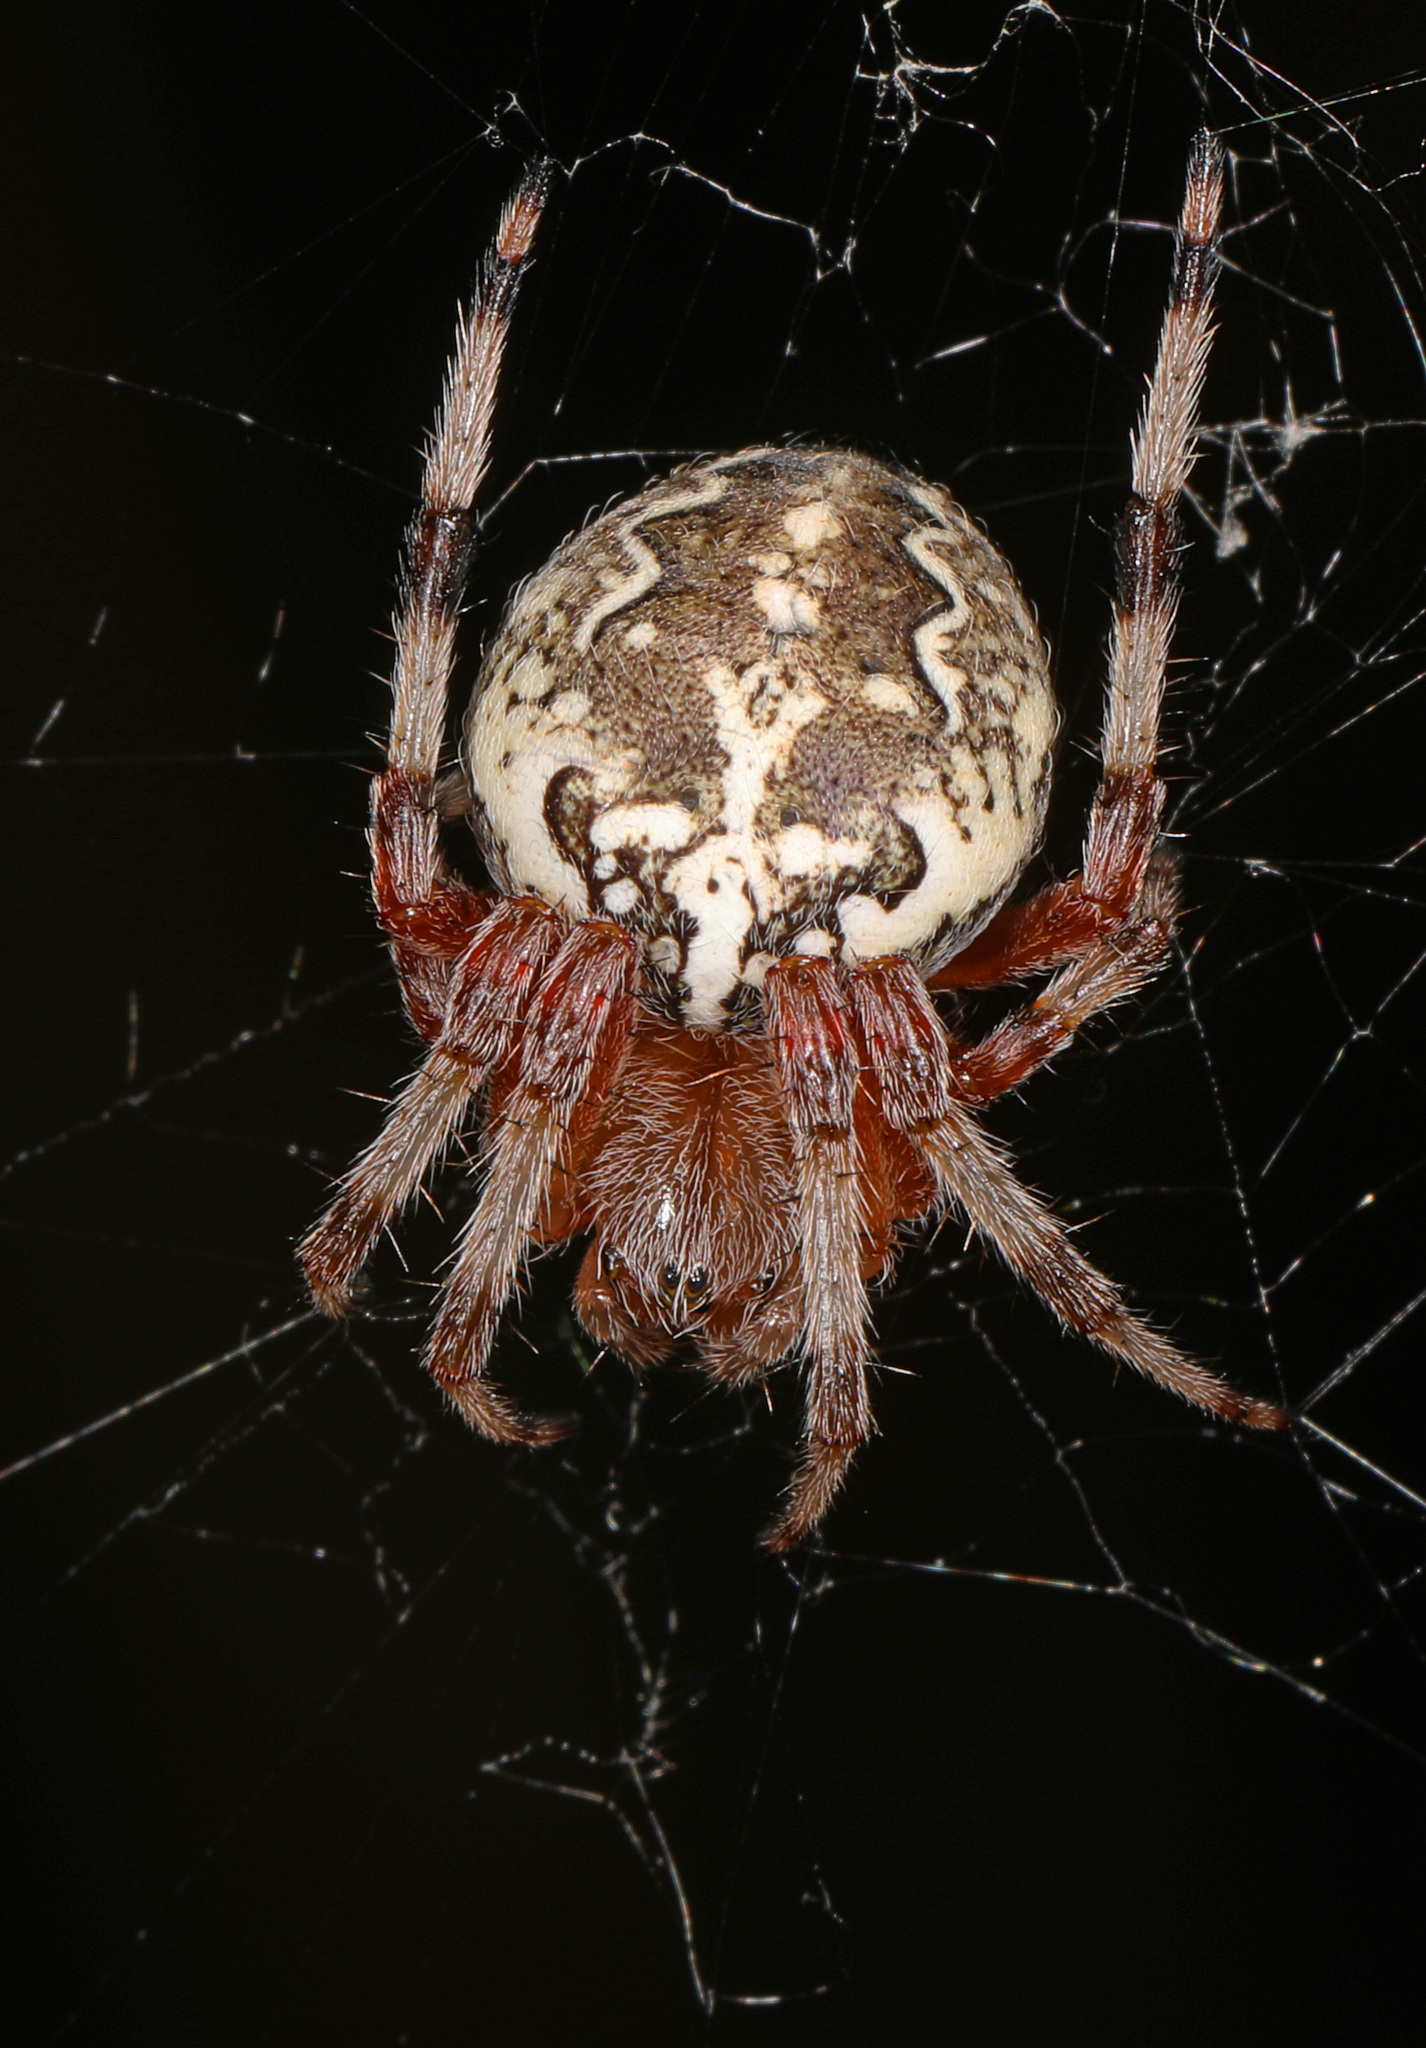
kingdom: Animalia
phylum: Arthropoda
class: Arachnida
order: Araneae
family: Araneidae
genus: Araneus
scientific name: Araneus marmoreus
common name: Marbled orbweaver
